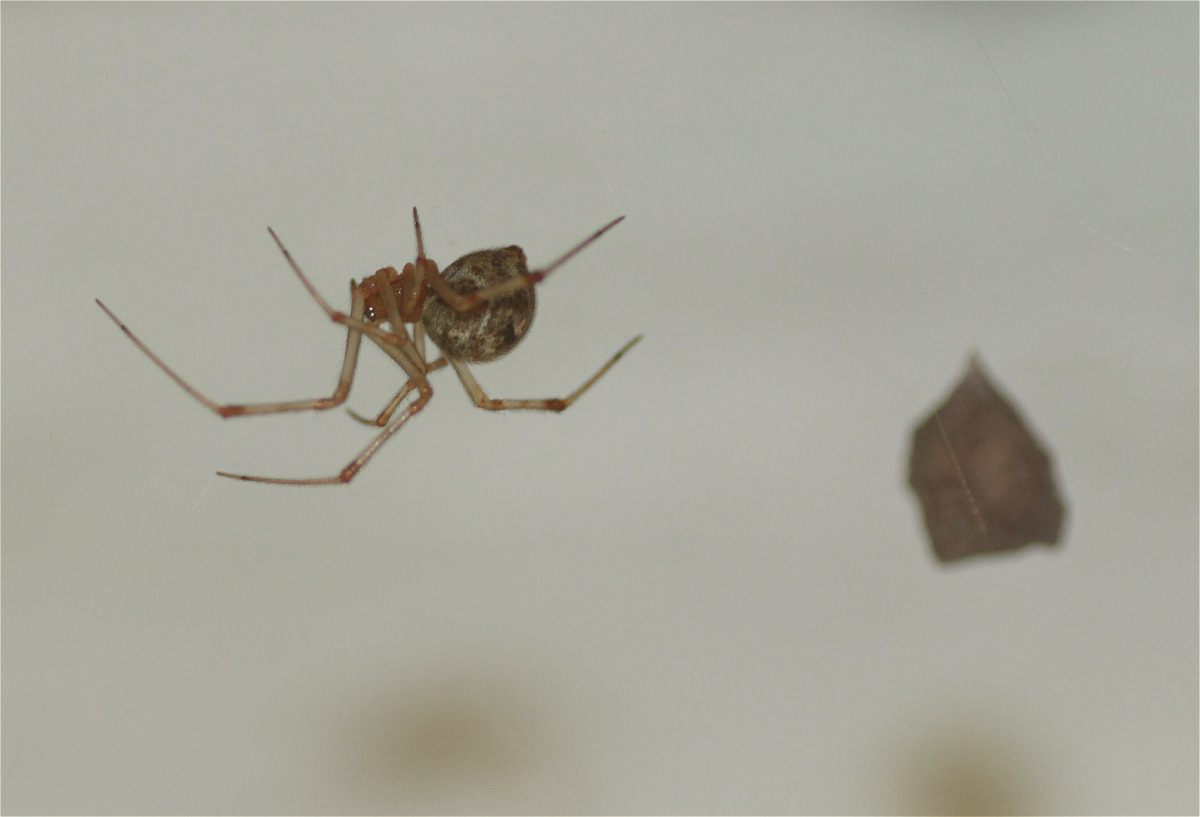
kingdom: Animalia
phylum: Arthropoda
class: Arachnida
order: Araneae
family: Theridiidae
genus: Parasteatoda
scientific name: Parasteatoda tepidariorum
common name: Common house spider
